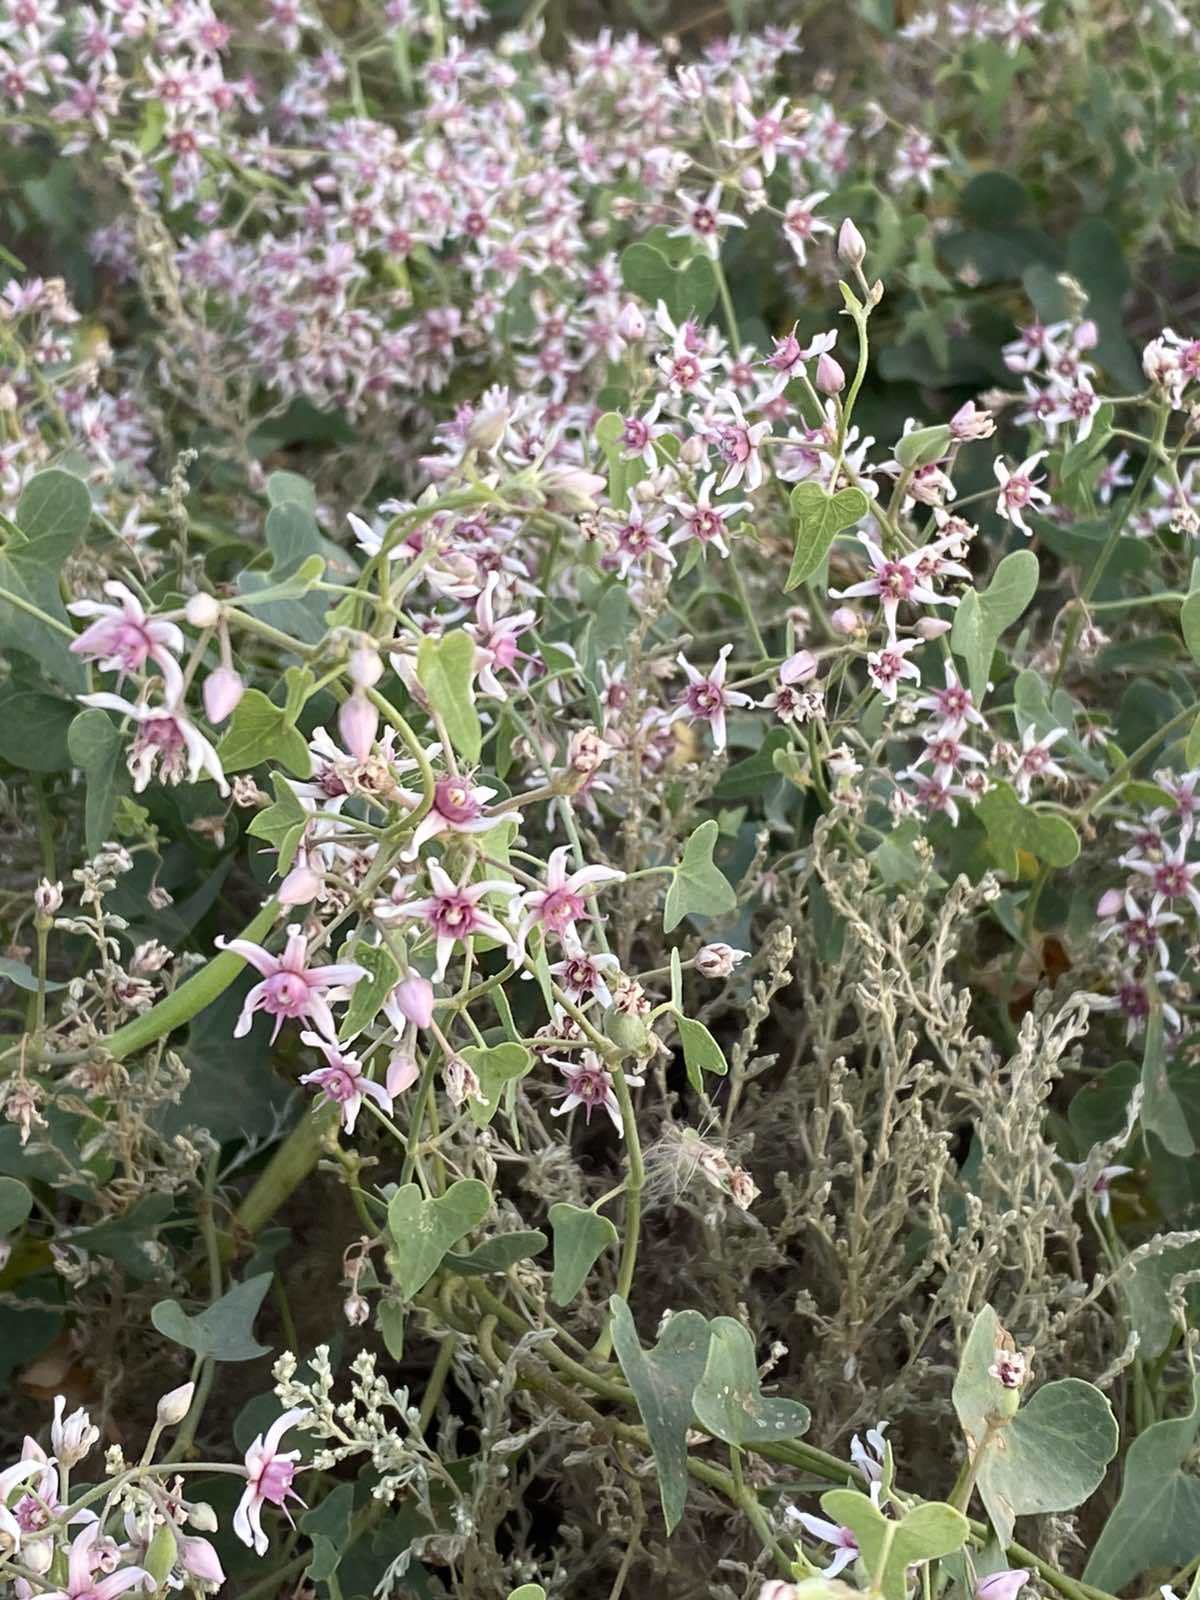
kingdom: Plantae
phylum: Tracheophyta
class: Magnoliopsida
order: Gentianales
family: Apocynaceae
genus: Cynanchum
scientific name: Cynanchum acutum
